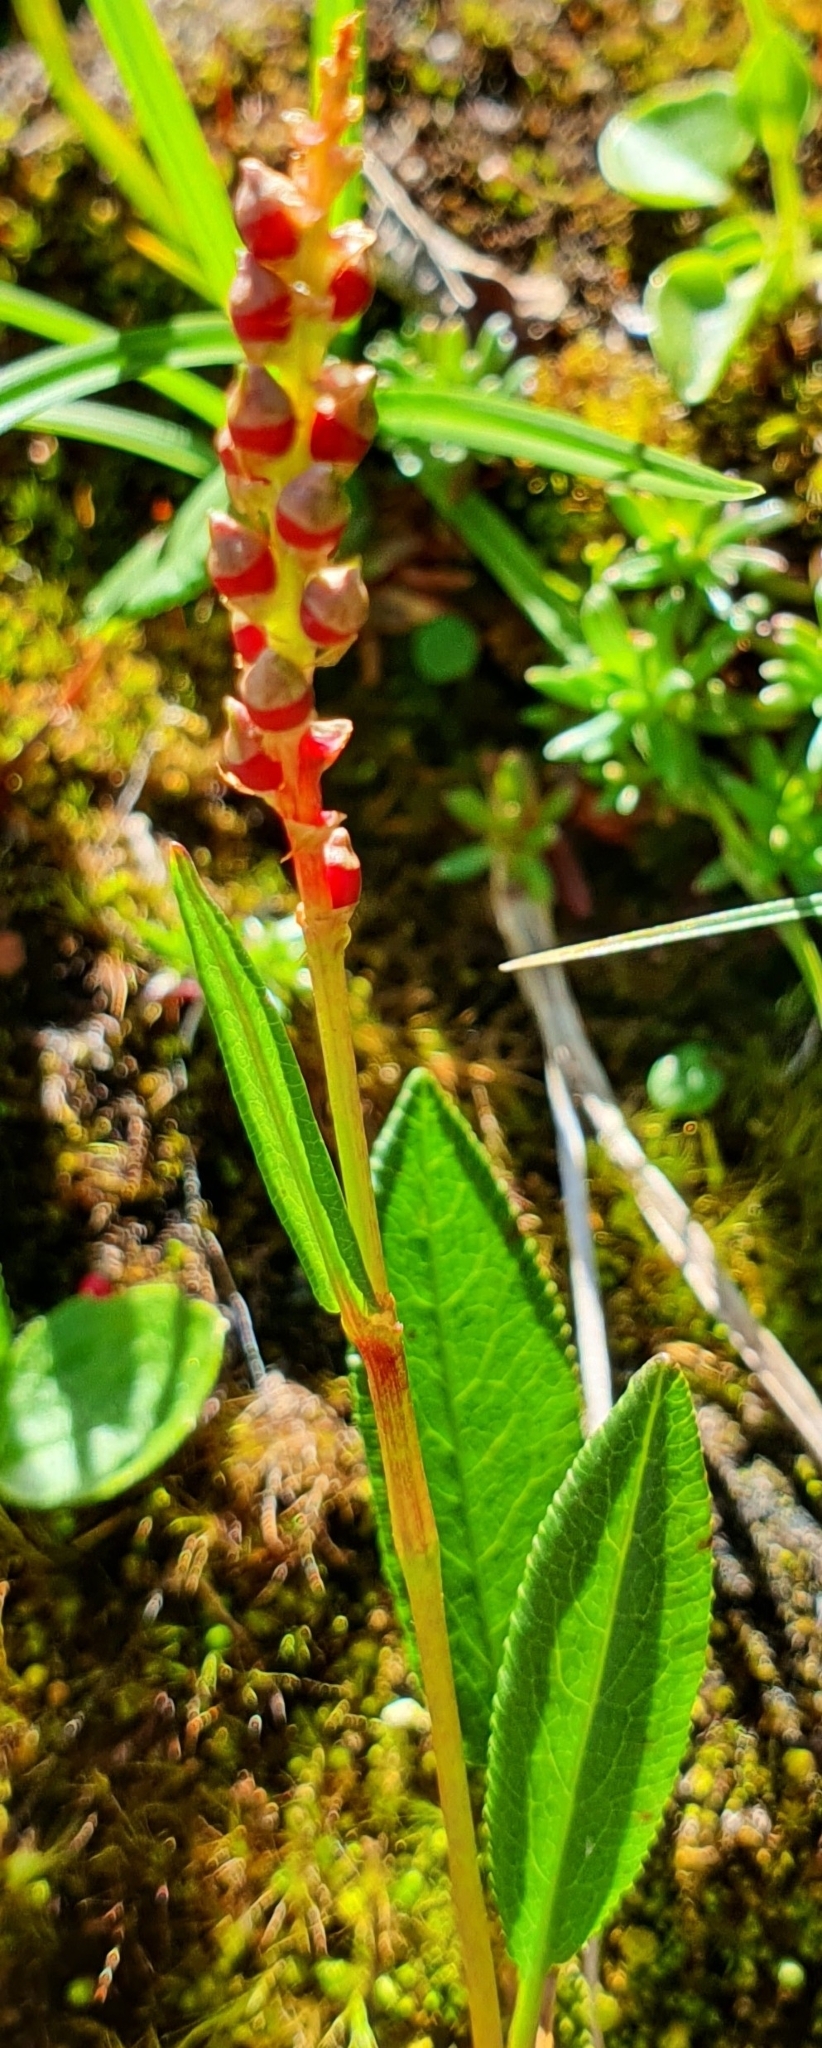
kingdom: Plantae
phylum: Tracheophyta
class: Magnoliopsida
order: Caryophyllales
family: Polygonaceae
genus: Bistorta
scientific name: Bistorta vivipara
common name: Alpine bistort
